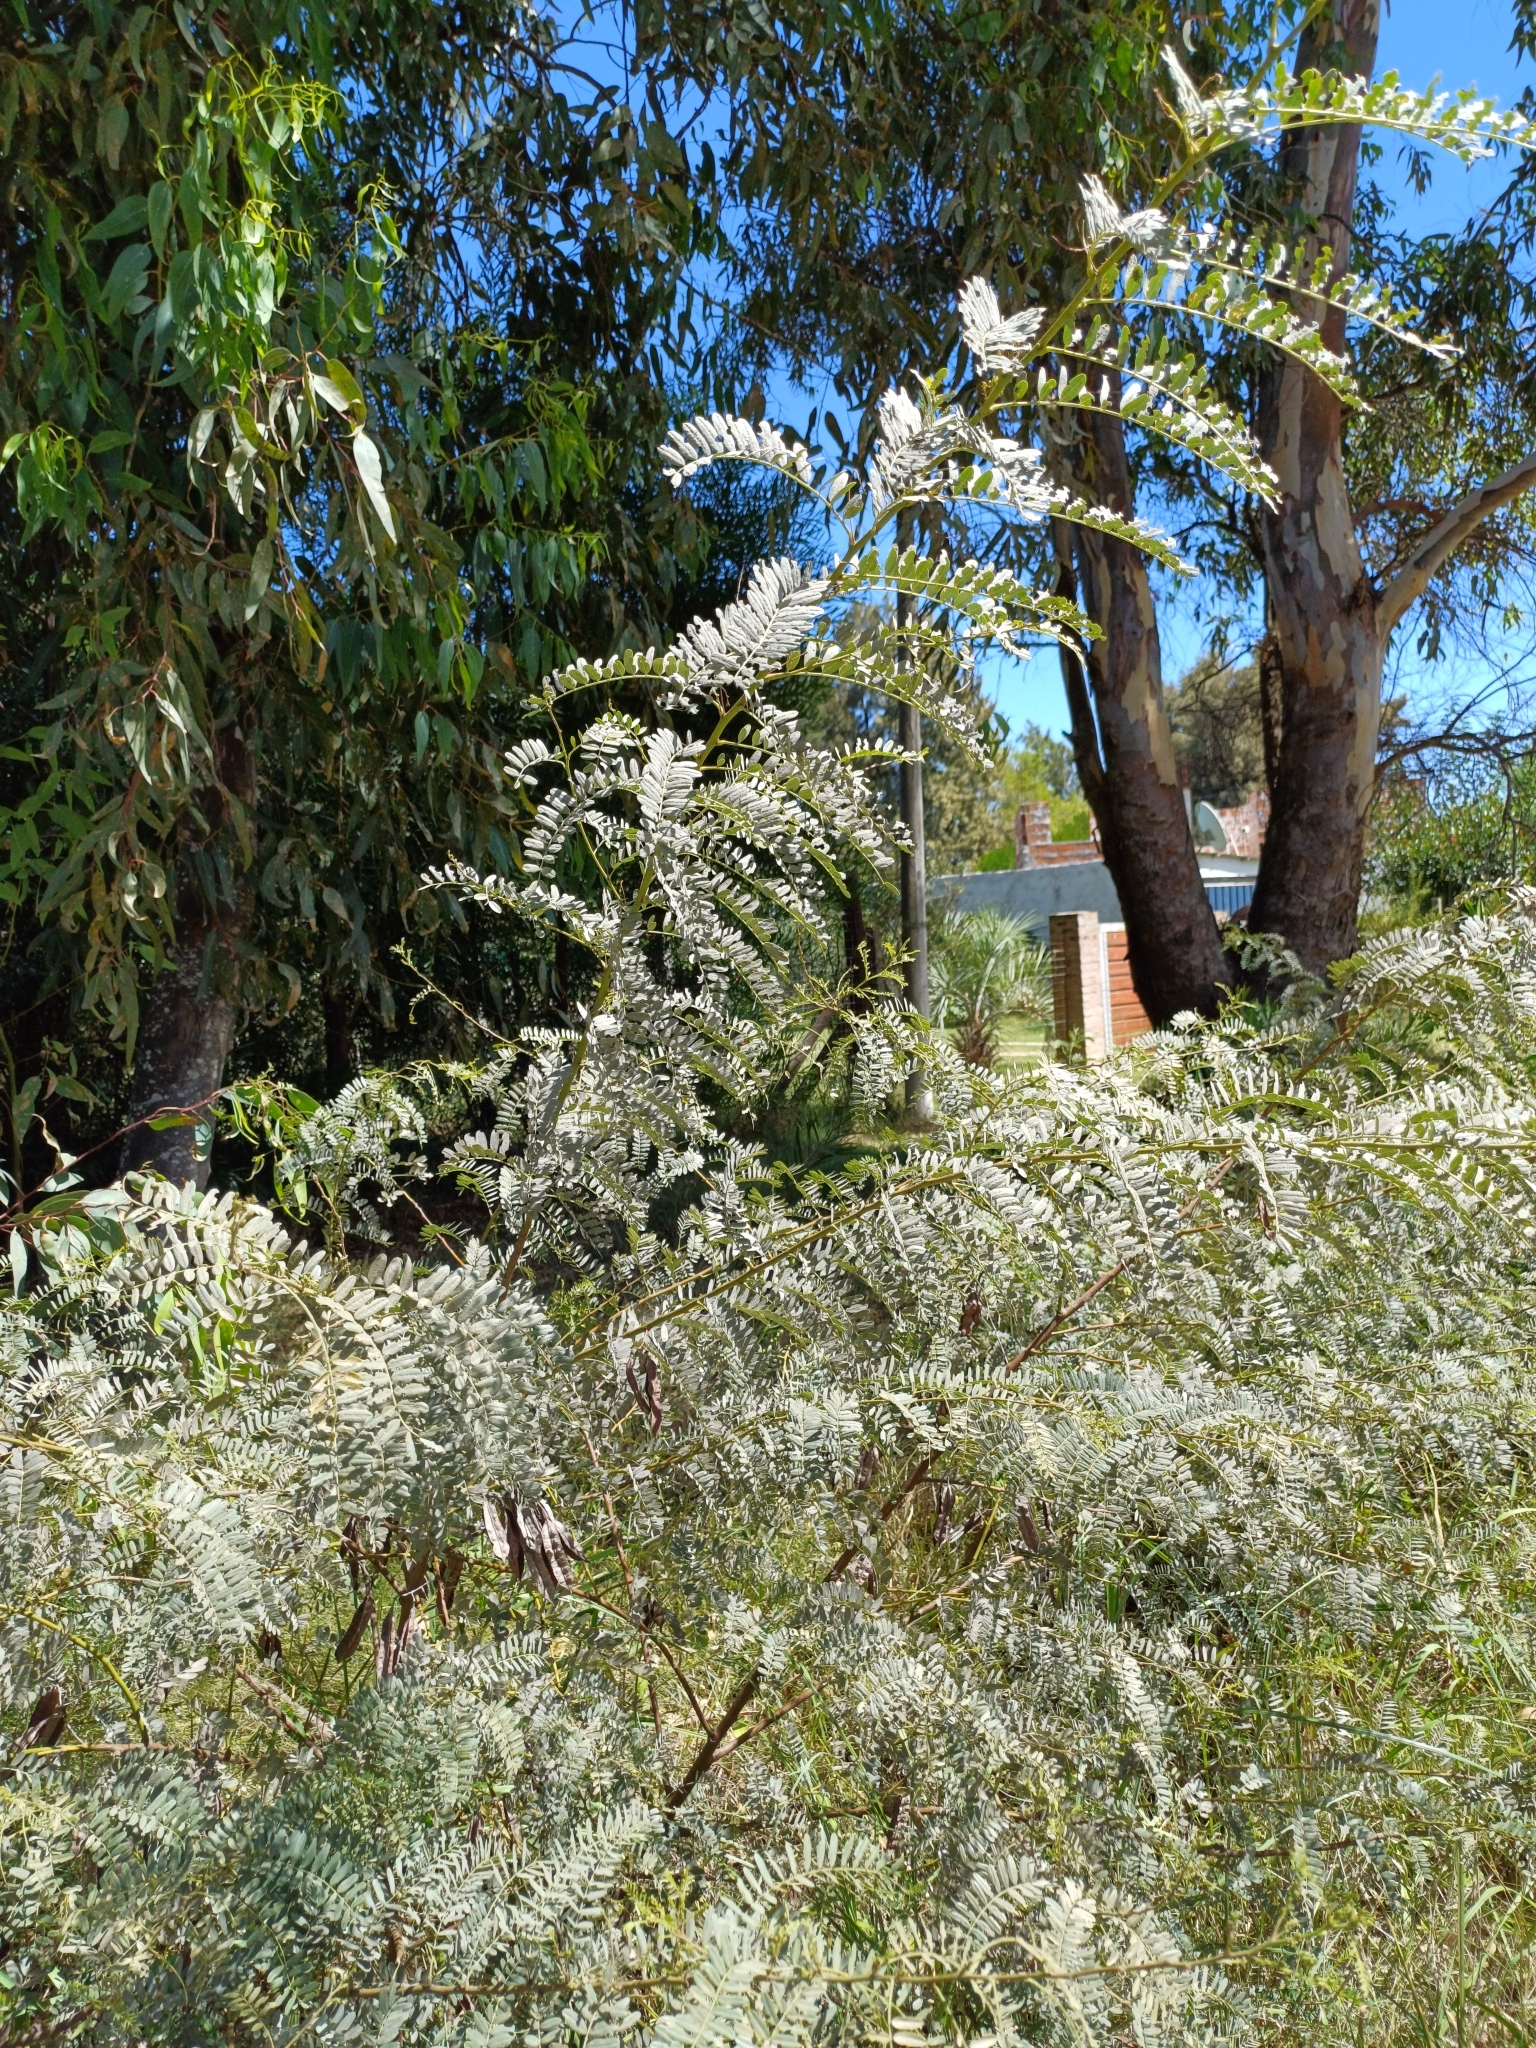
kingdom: Plantae
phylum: Tracheophyta
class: Magnoliopsida
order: Fabales
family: Fabaceae
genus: Sesbania
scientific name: Sesbania punicea
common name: Rattlebox
